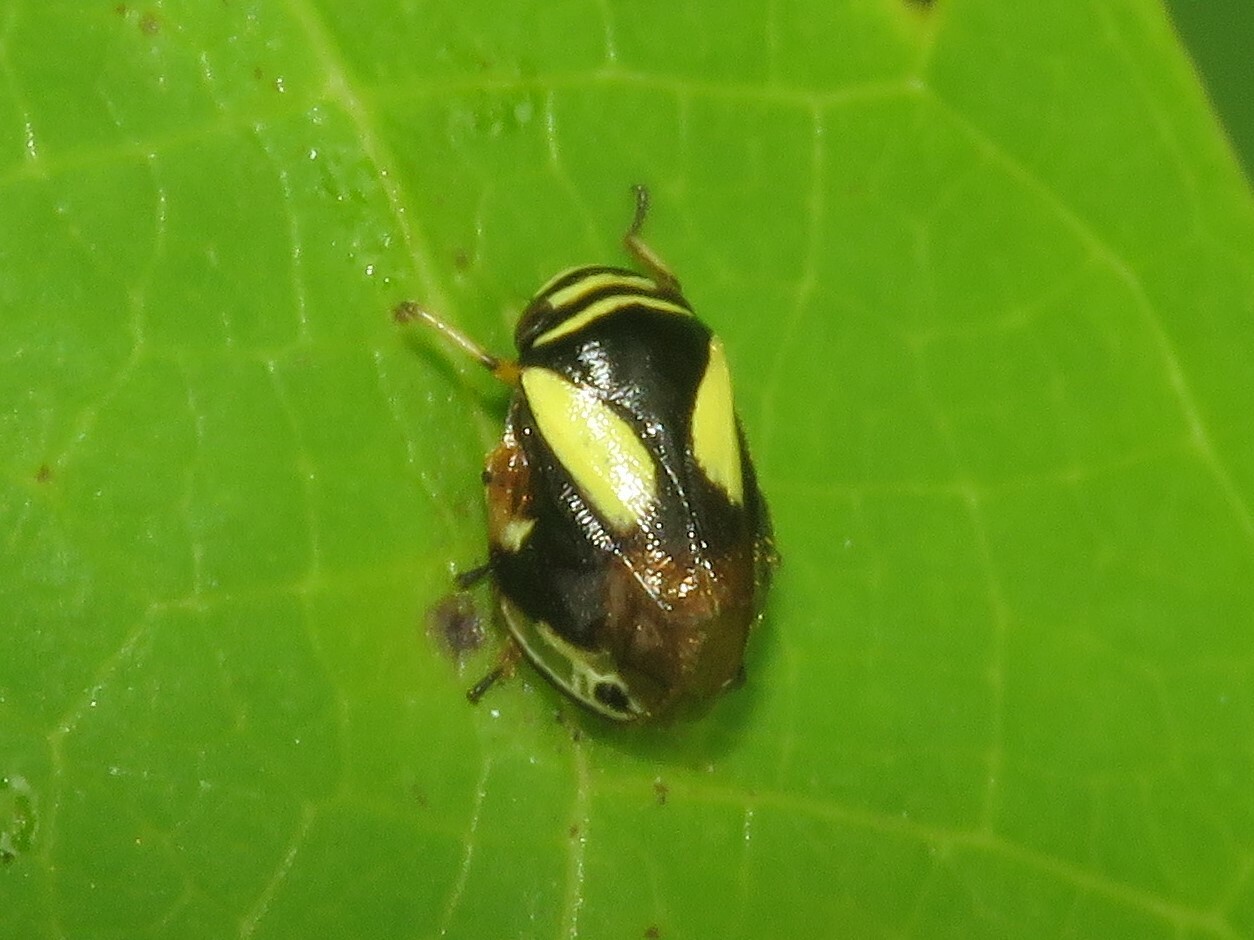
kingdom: Animalia
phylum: Arthropoda
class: Insecta
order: Hemiptera
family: Clastopteridae
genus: Clastoptera
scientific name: Clastoptera proteus
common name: Dogwood spittlebug
